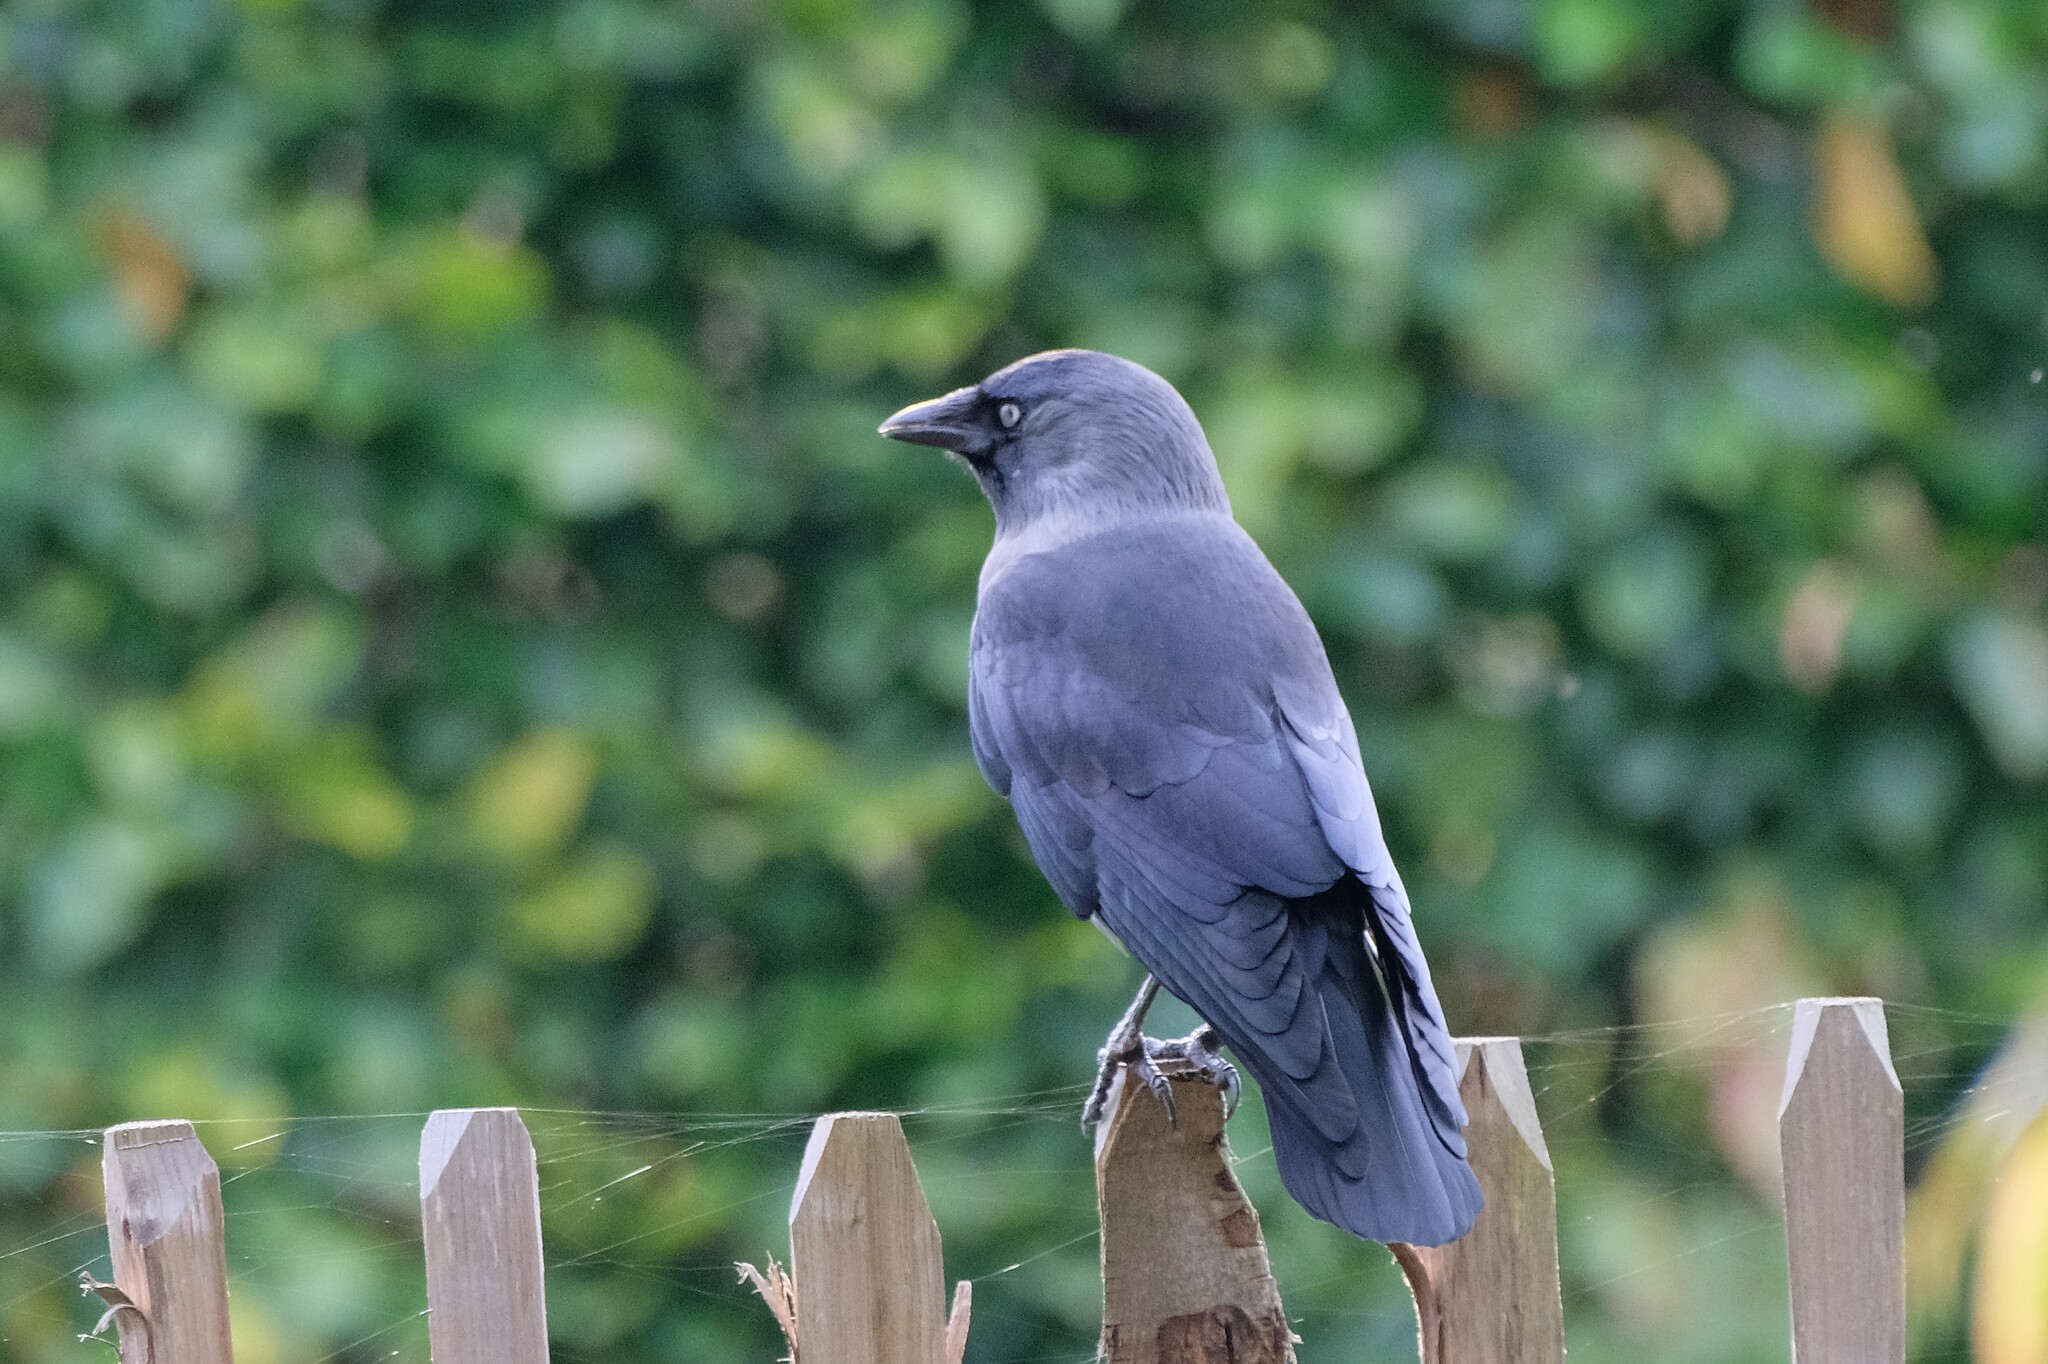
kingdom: Animalia
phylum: Chordata
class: Aves
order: Passeriformes
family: Corvidae
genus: Coloeus
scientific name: Coloeus monedula
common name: Western jackdaw
